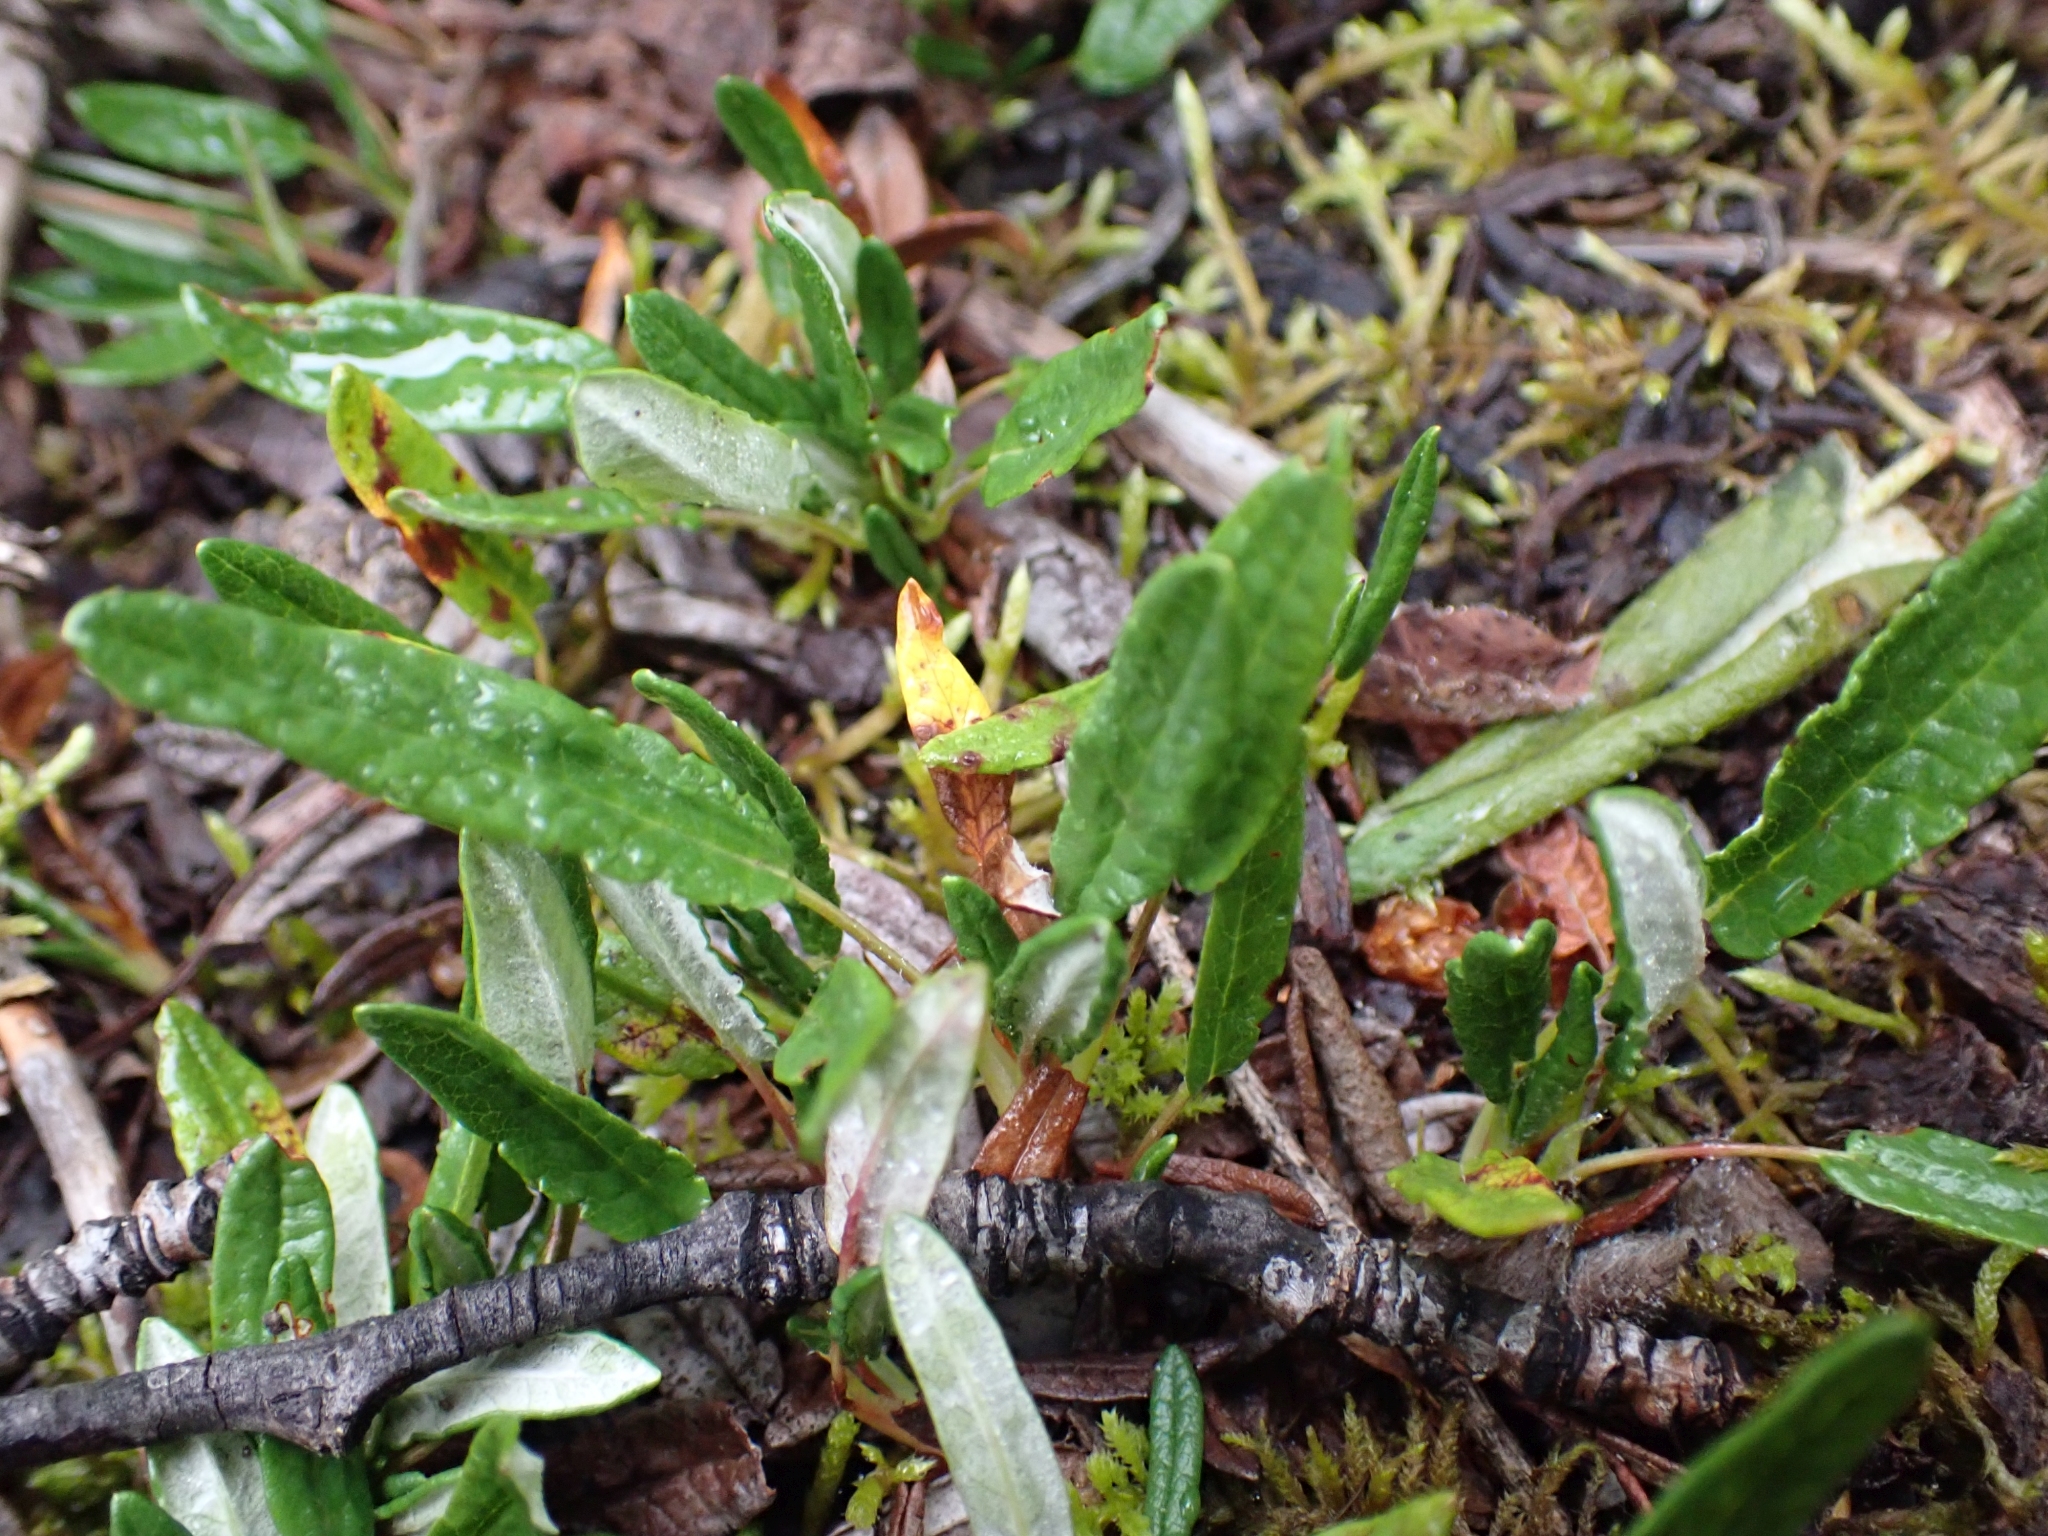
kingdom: Plantae
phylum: Tracheophyta
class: Magnoliopsida
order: Rosales
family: Rosaceae
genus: Dryas
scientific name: Dryas integrifolia
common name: Entire-leaved mountain avens
